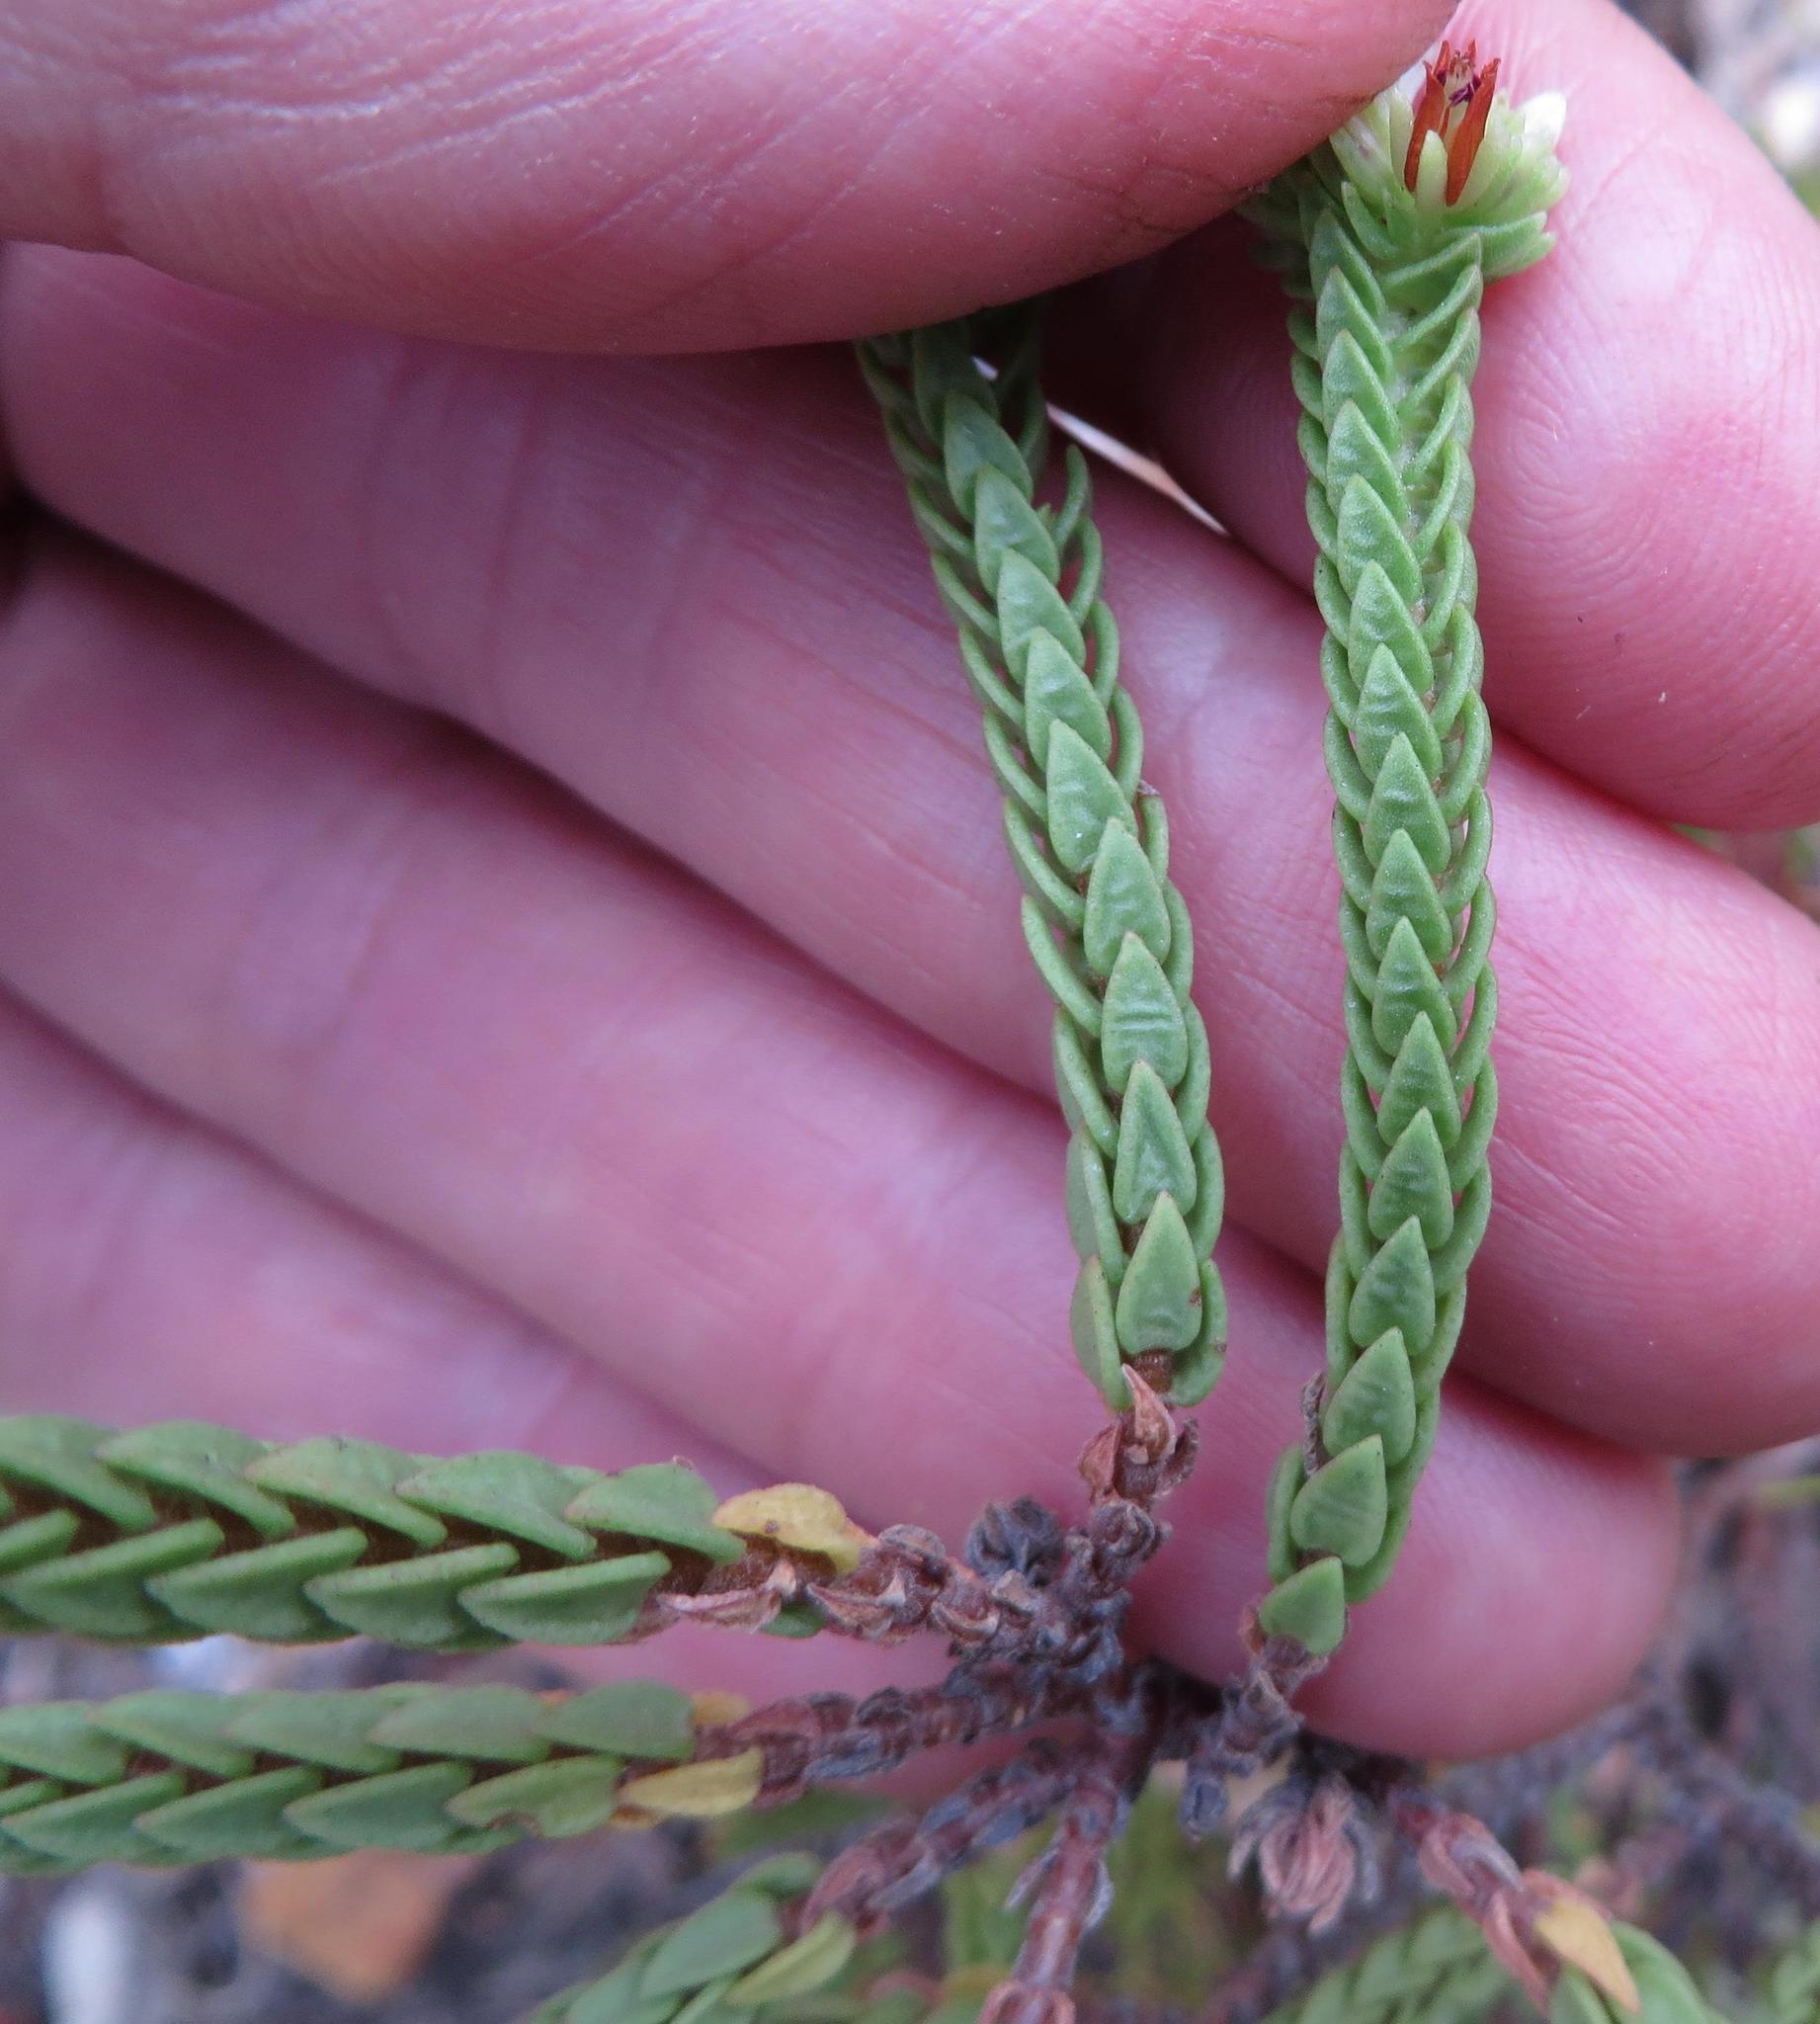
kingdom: Plantae
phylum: Tracheophyta
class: Magnoliopsida
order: Saxifragales
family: Crassulaceae
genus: Crassula
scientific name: Crassula ericoides
